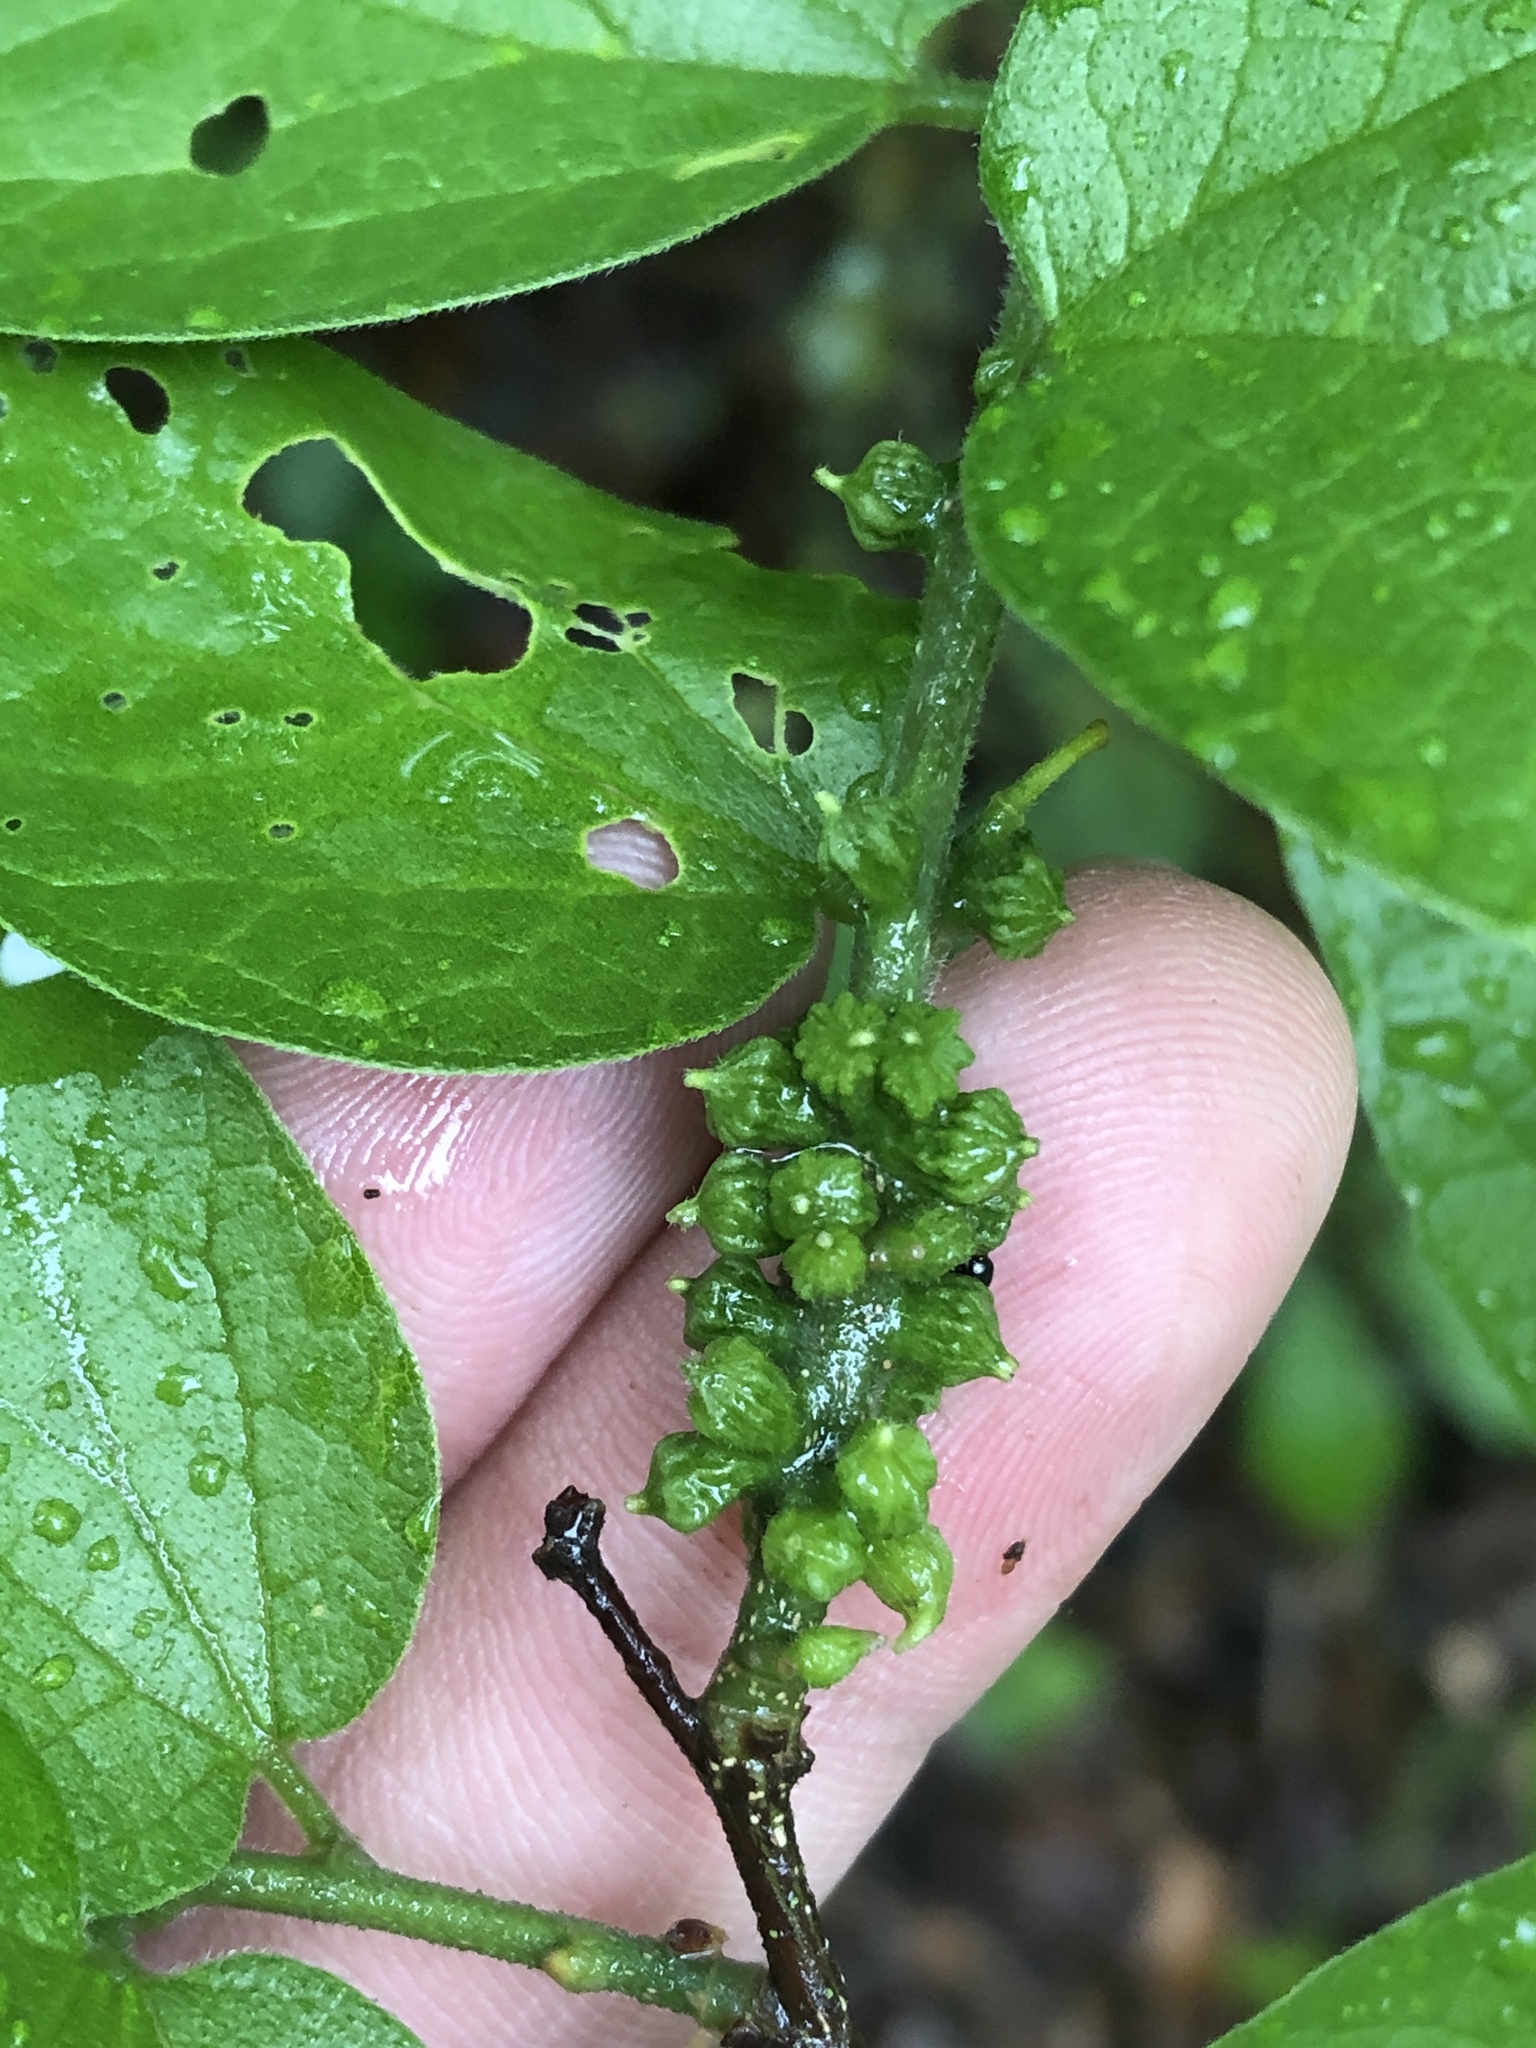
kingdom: Animalia
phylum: Arthropoda
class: Insecta
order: Diptera
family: Cecidomyiidae
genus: Celticecis
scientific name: Celticecis ramicola
